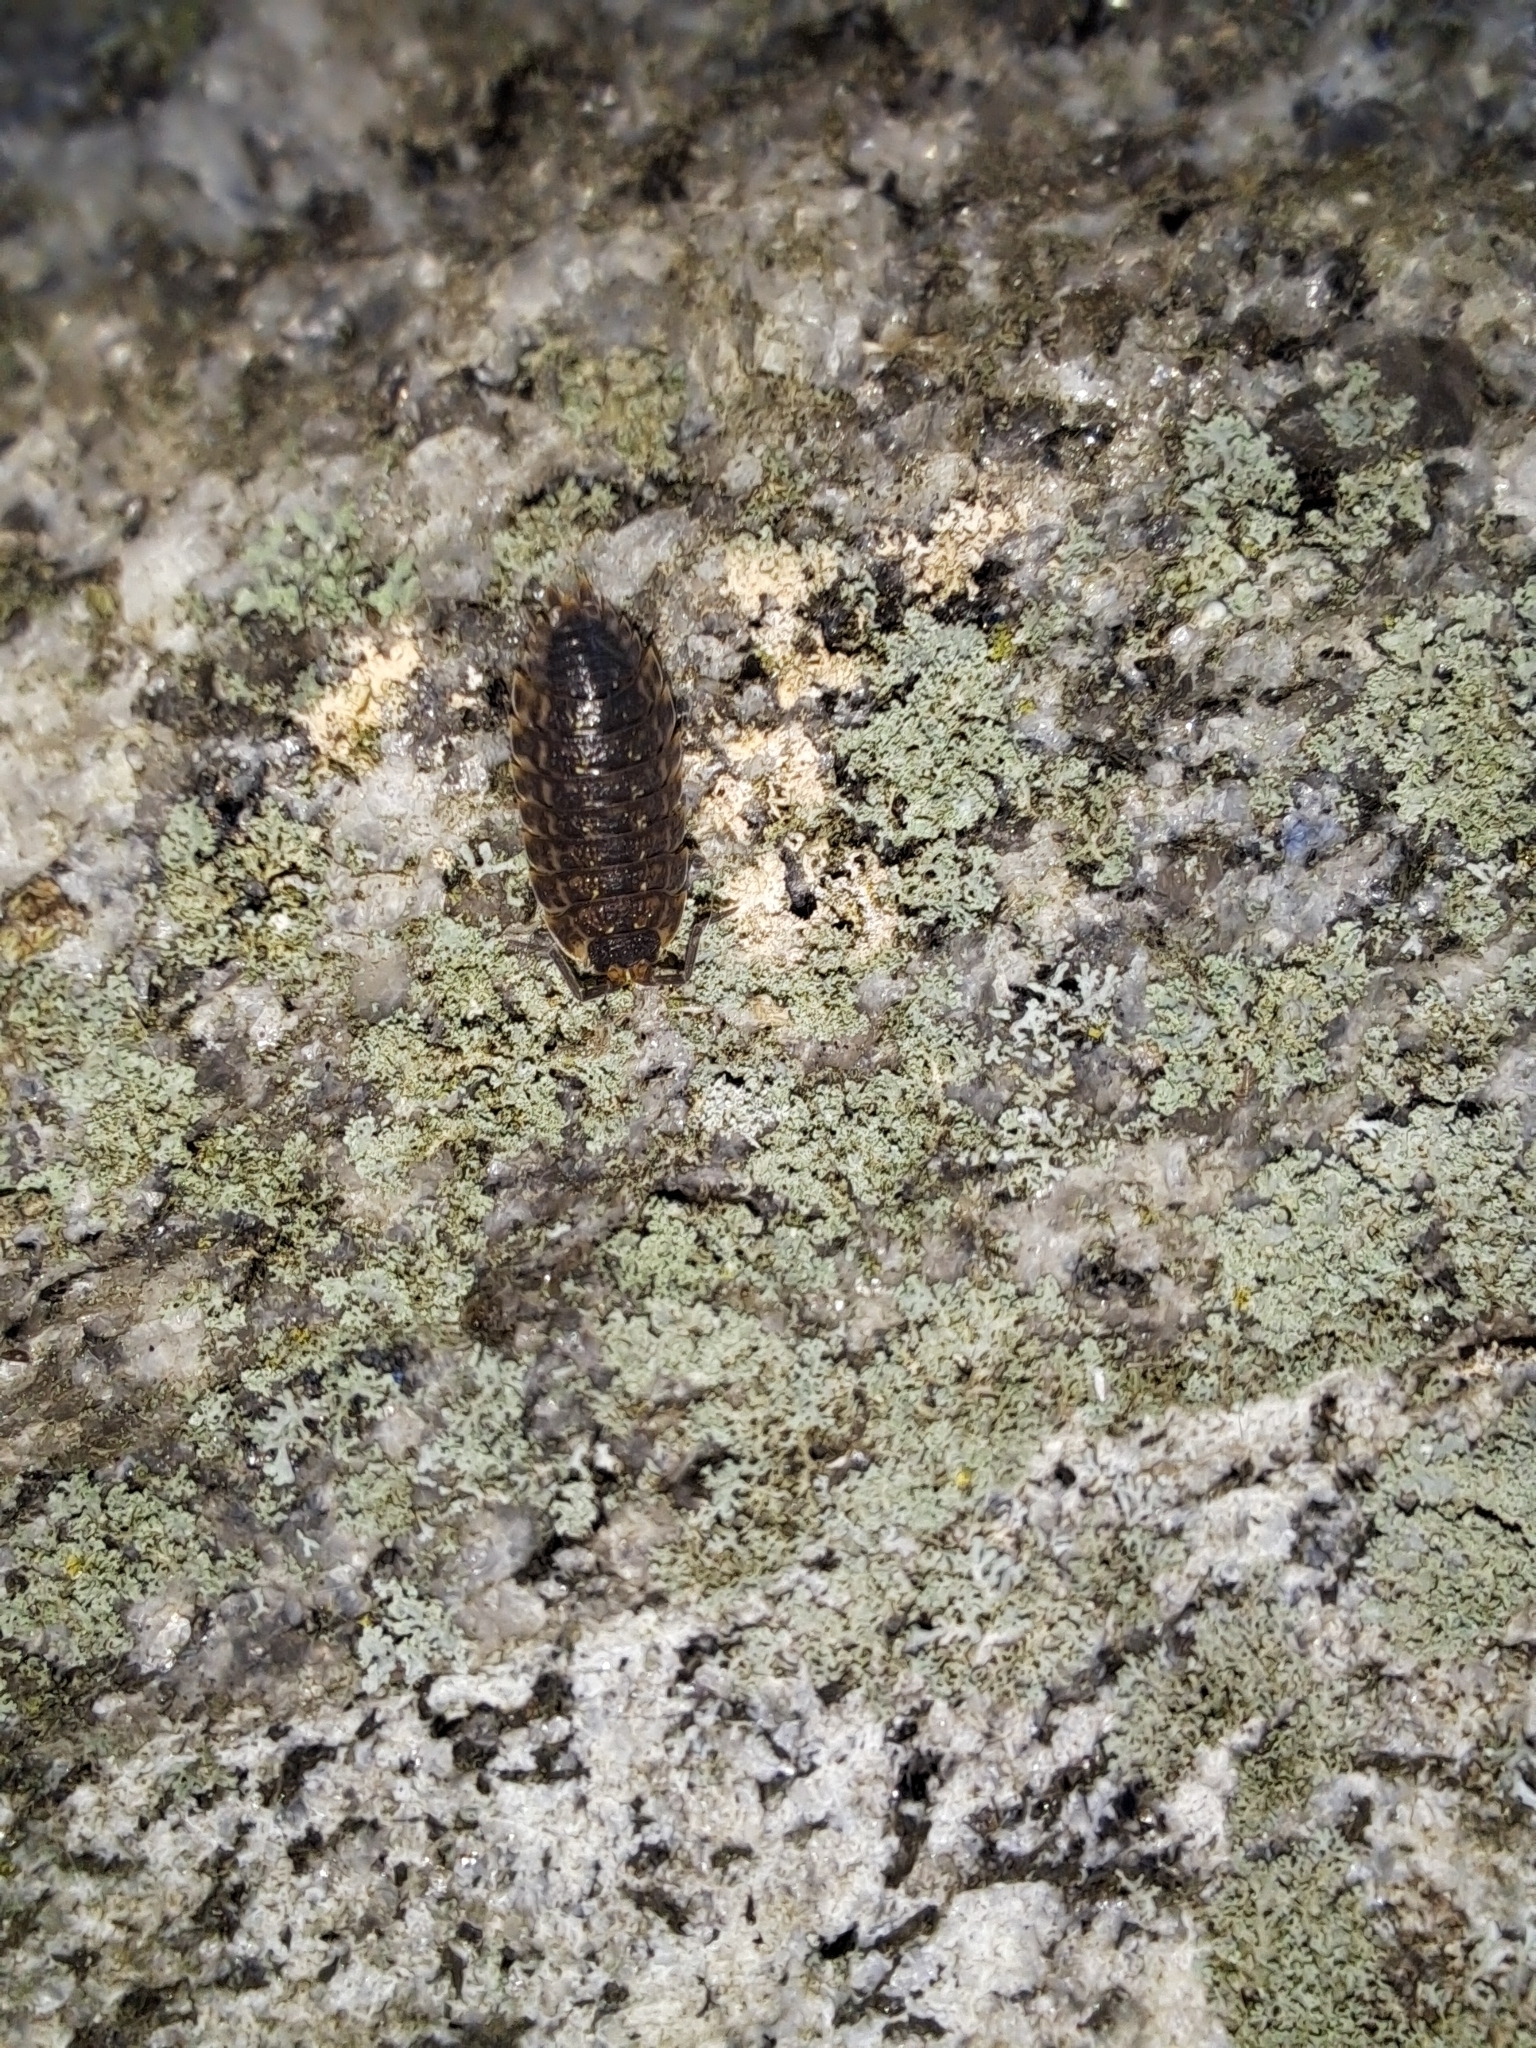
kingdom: Animalia
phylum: Arthropoda
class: Malacostraca
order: Isopoda
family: Porcellionidae
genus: Porcellio
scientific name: Porcellio spinicornis
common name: Painted woodlouse
